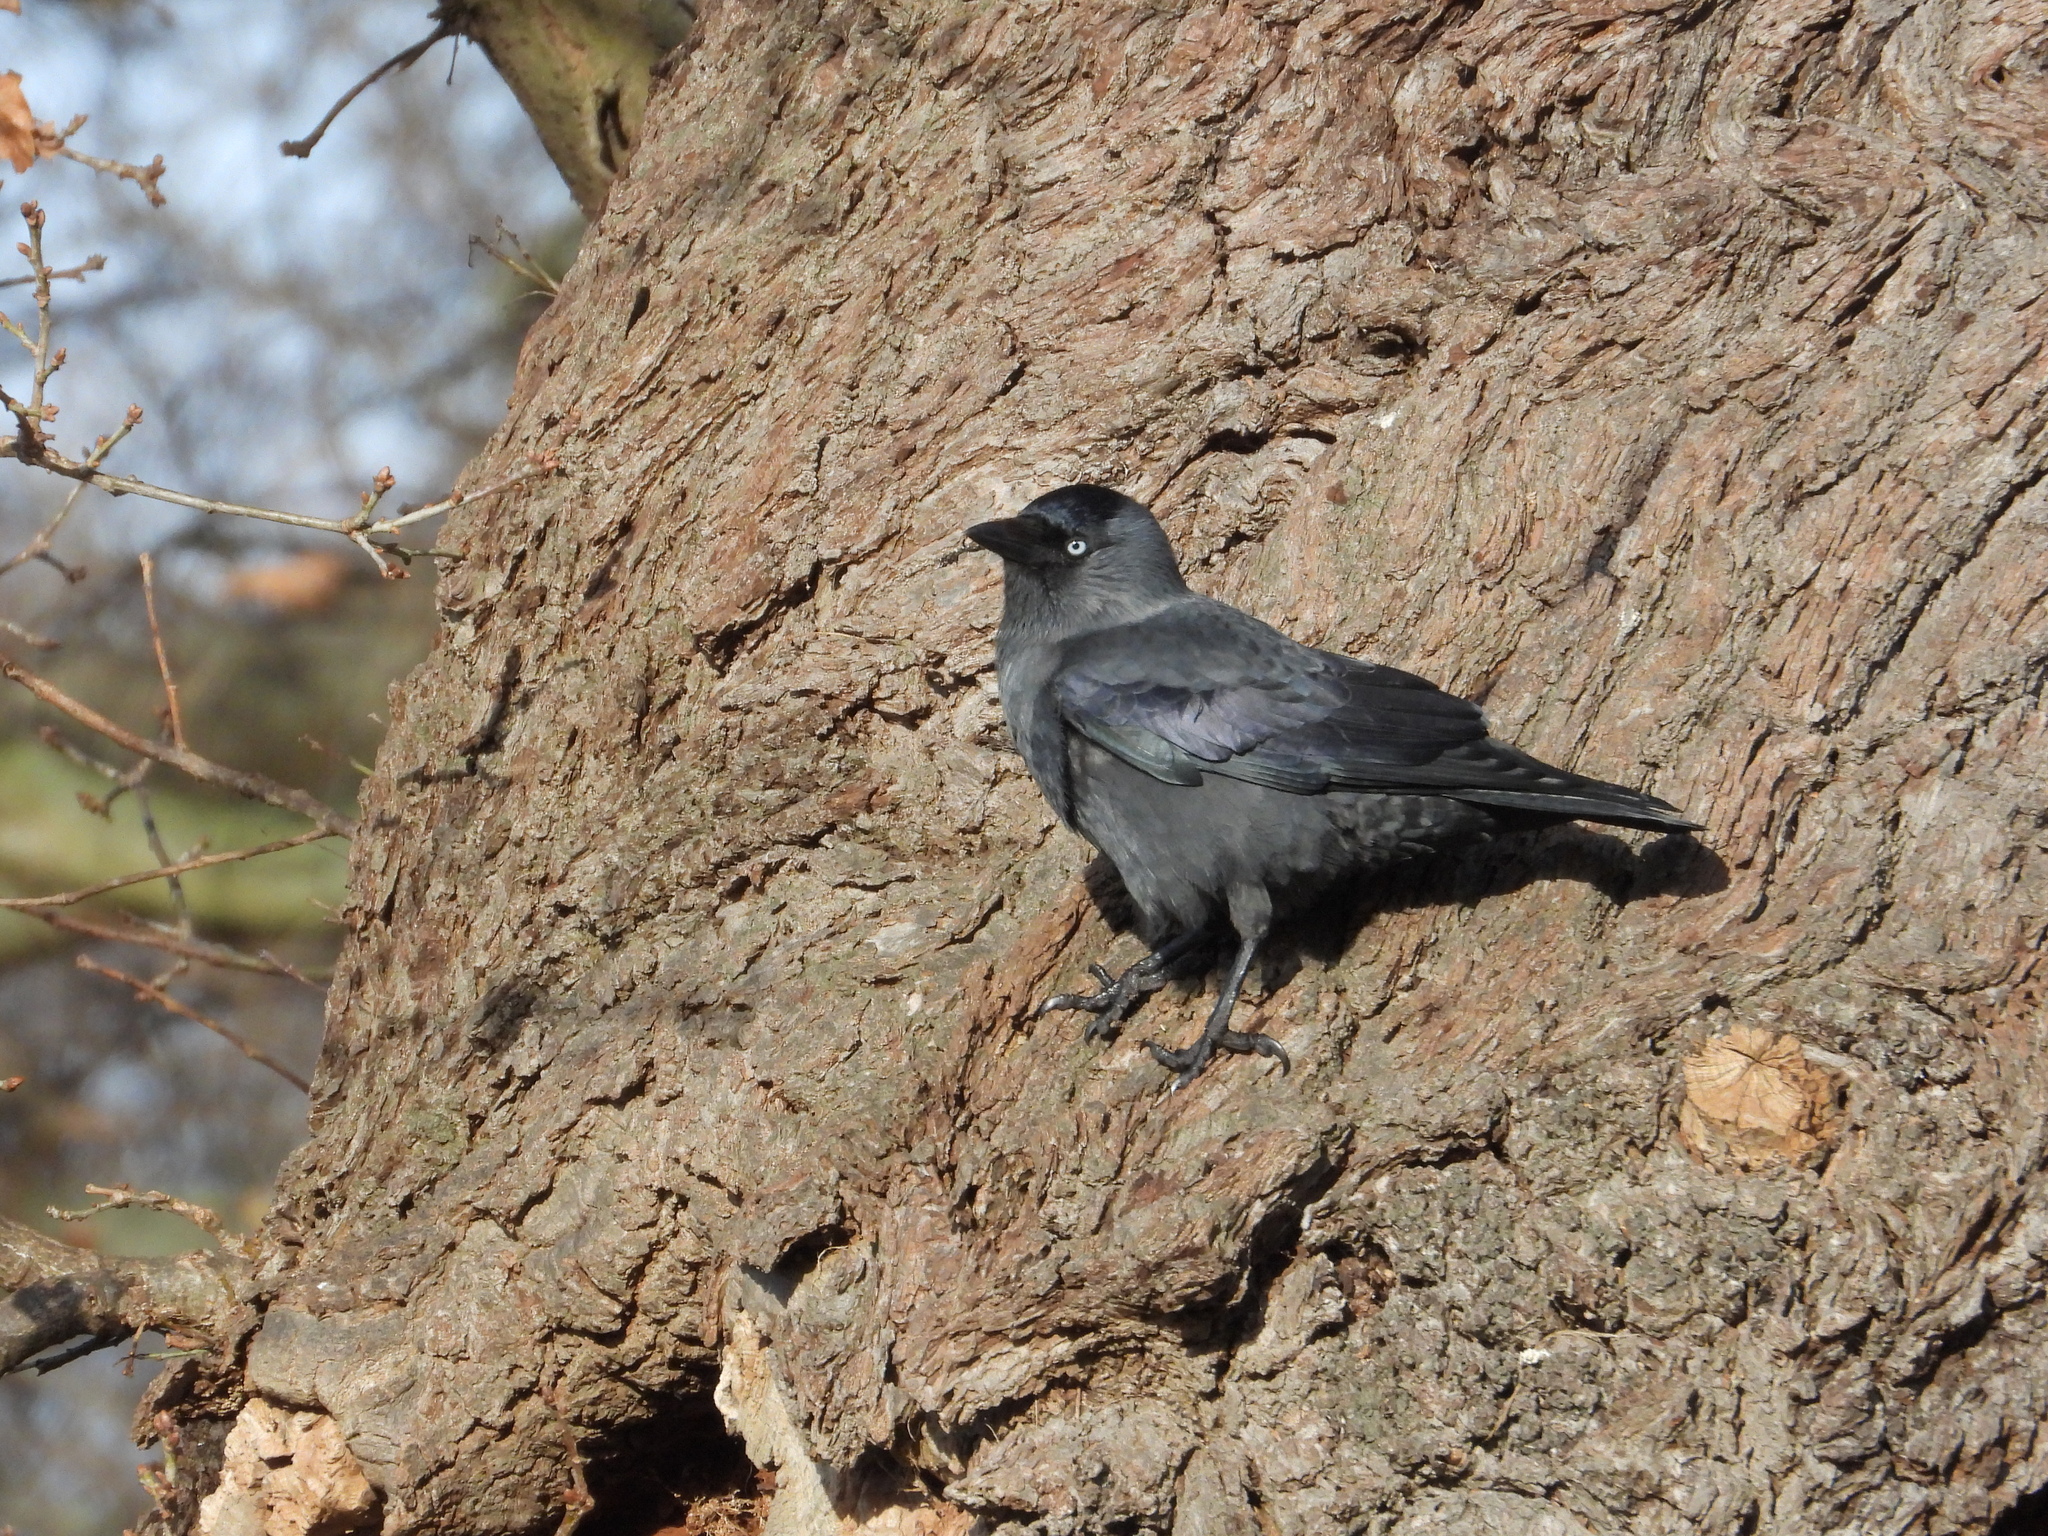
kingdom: Animalia
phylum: Chordata
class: Aves
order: Passeriformes
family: Corvidae
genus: Coloeus
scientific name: Coloeus monedula
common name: Western jackdaw
